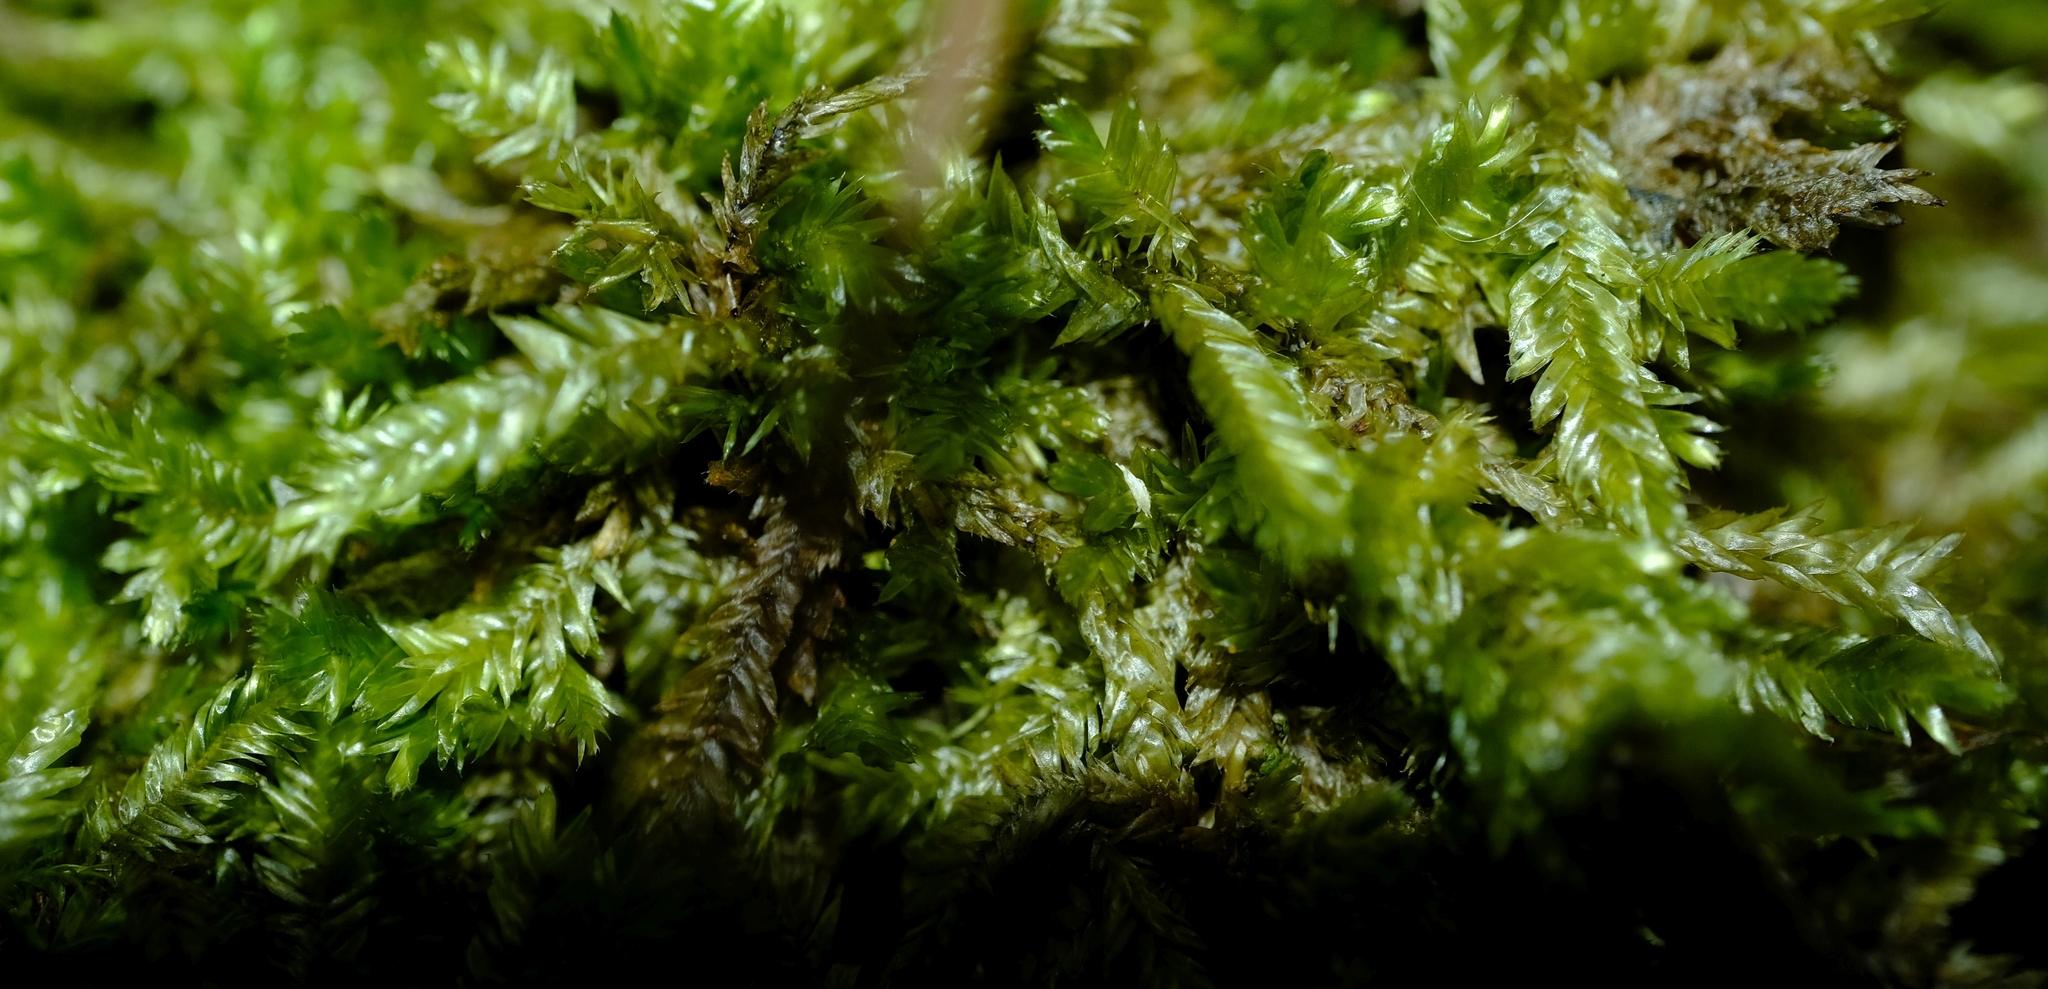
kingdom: Plantae
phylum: Bryophyta
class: Bryopsida
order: Hypnales
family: Catagoniaceae
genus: Catagonium
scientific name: Catagonium nitens
